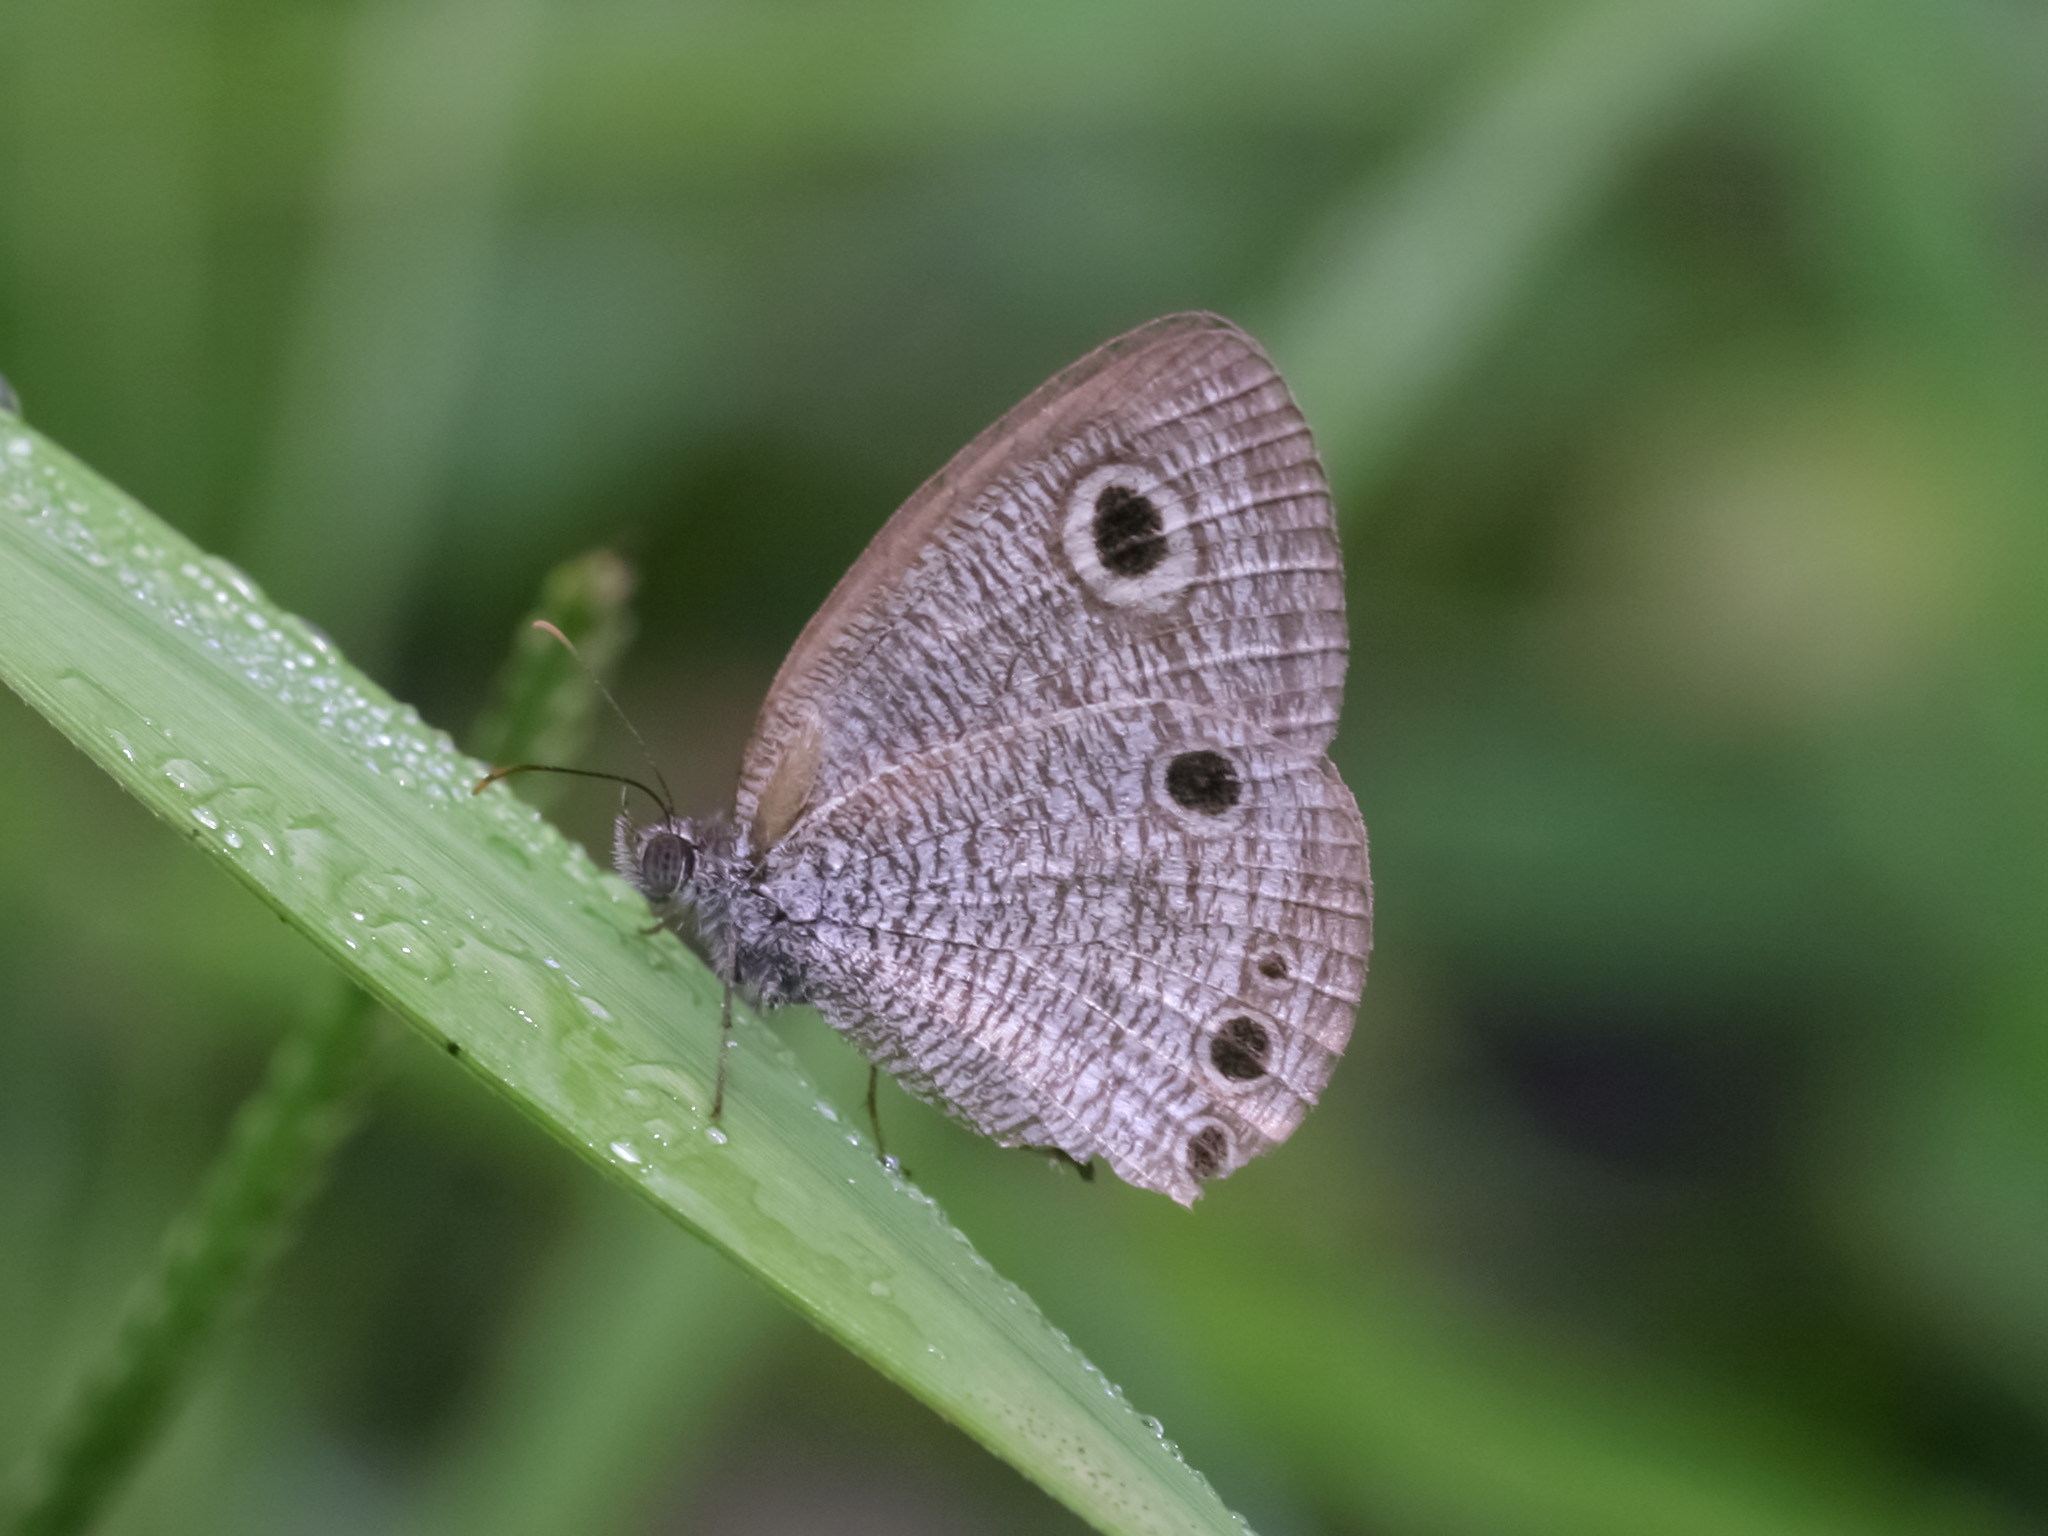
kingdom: Animalia
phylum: Arthropoda
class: Insecta
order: Lepidoptera
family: Nymphalidae
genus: Ypthima
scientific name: Ypthima huebneri
